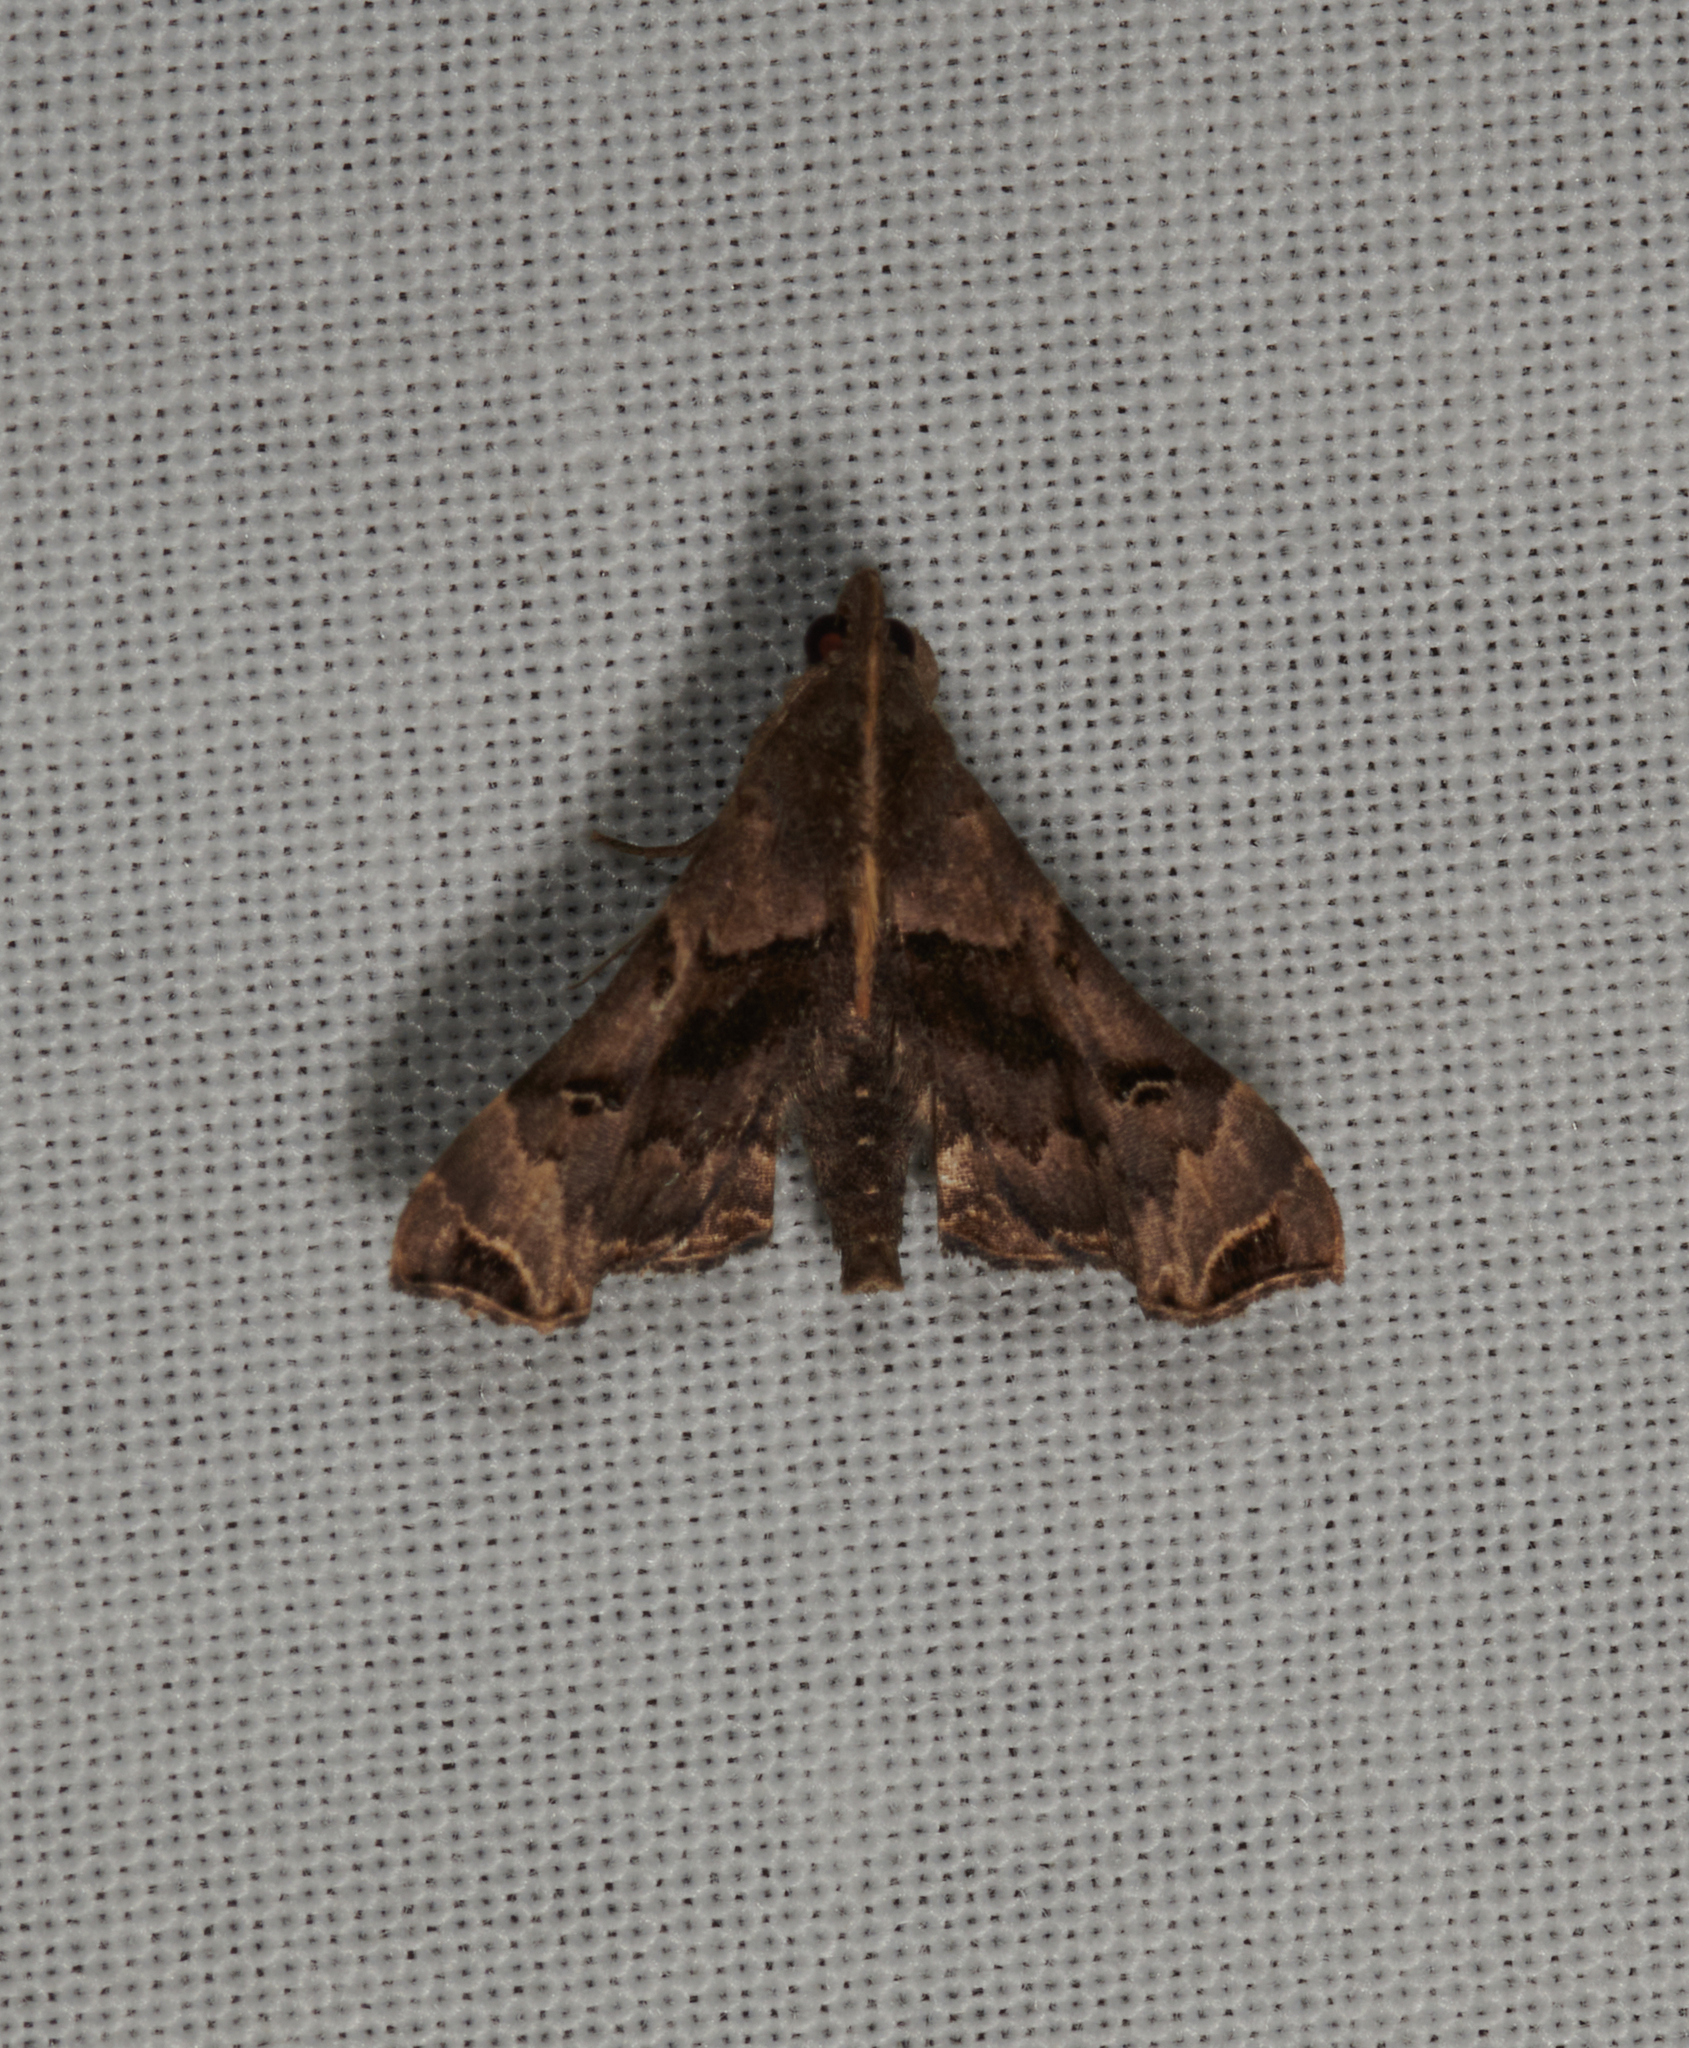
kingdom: Animalia
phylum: Arthropoda
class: Insecta
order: Lepidoptera
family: Erebidae
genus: Palthis
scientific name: Palthis asopialis
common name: Faint-spotted palthis moth
